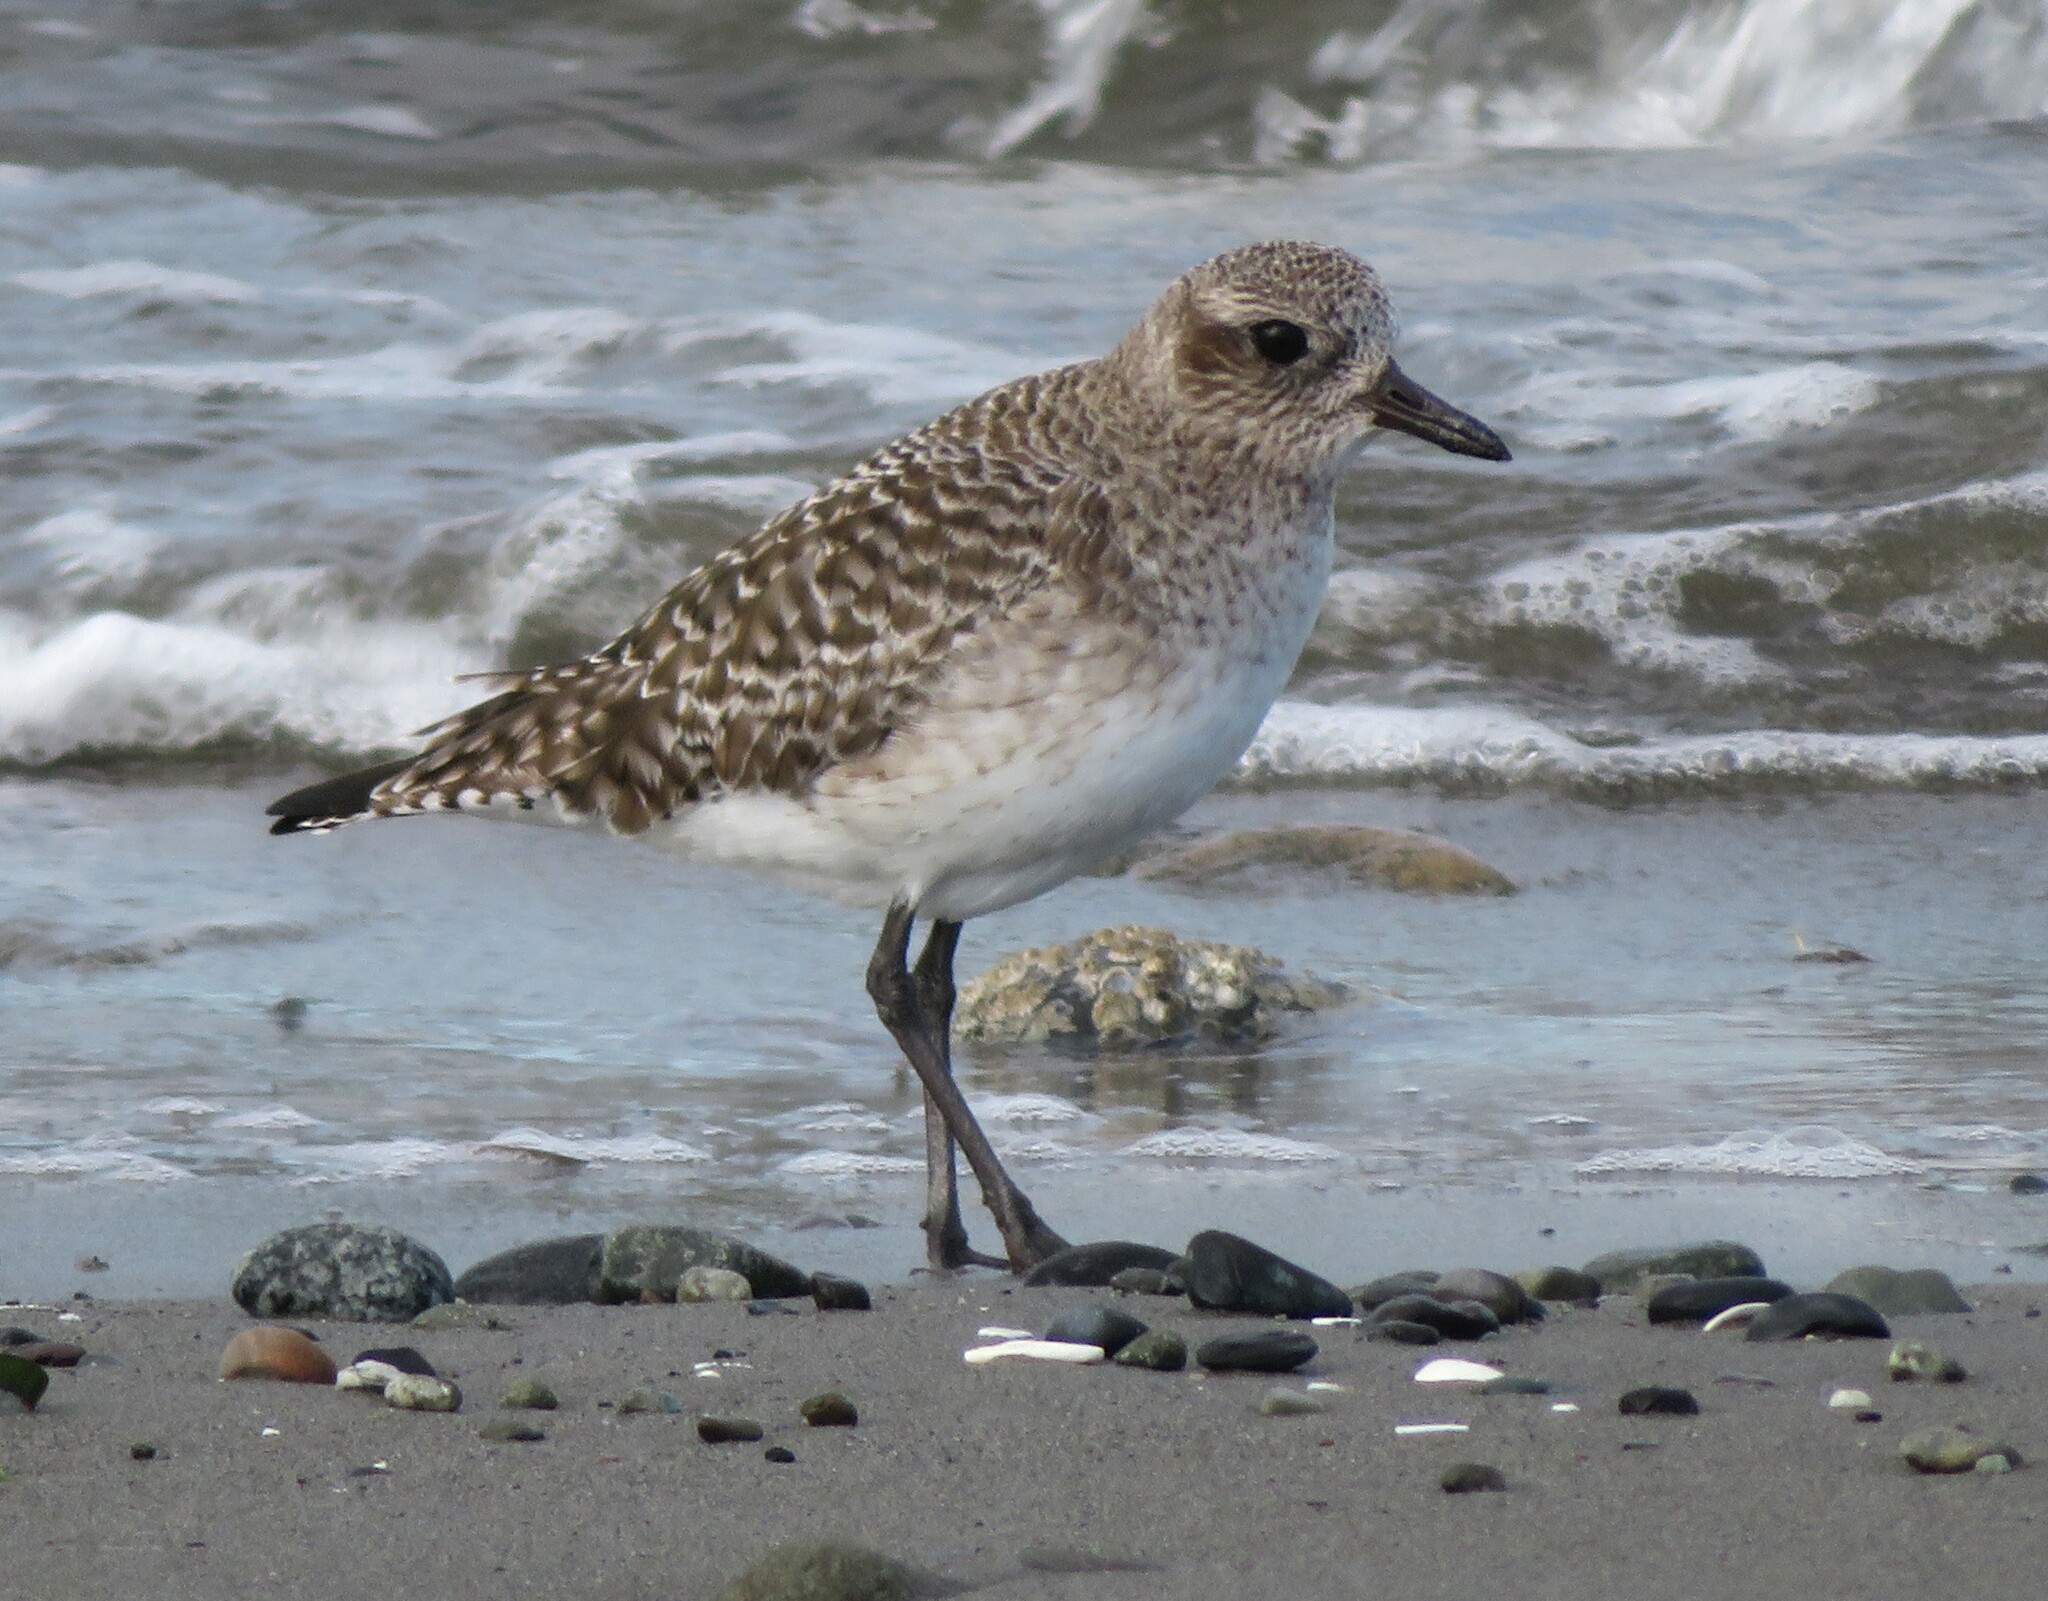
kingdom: Animalia
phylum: Chordata
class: Aves
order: Charadriiformes
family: Charadriidae
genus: Pluvialis
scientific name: Pluvialis squatarola
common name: Grey plover
